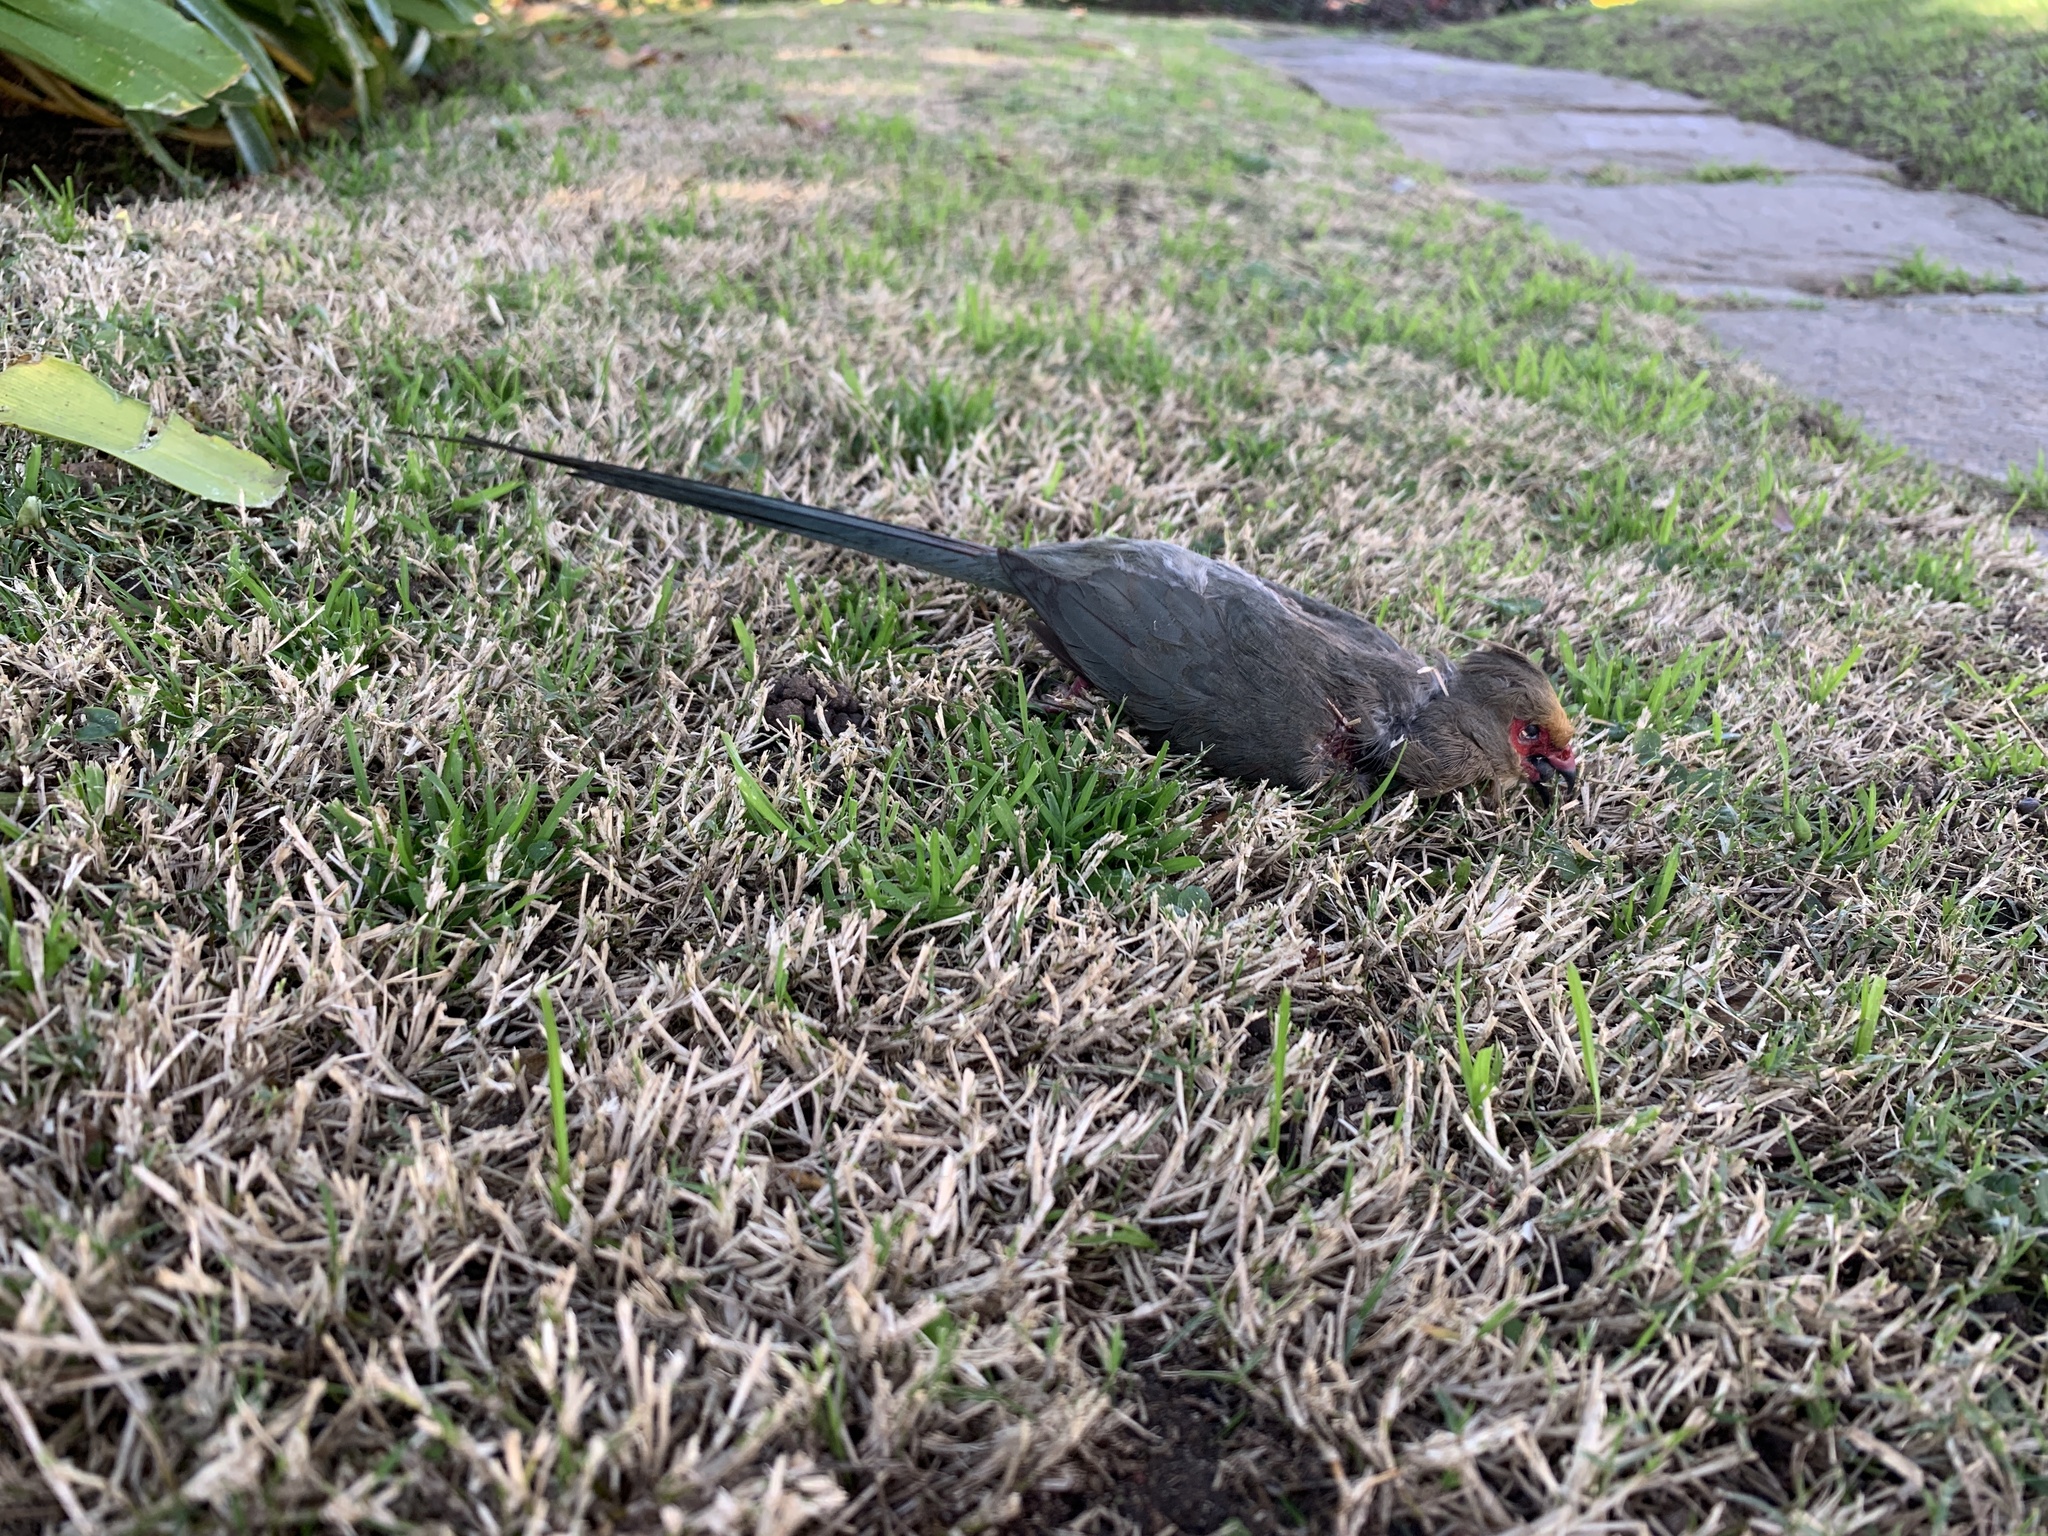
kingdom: Animalia
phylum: Chordata
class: Aves
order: Coliiformes
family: Coliidae
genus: Urocolius
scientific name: Urocolius indicus
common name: Red-faced mousebird
